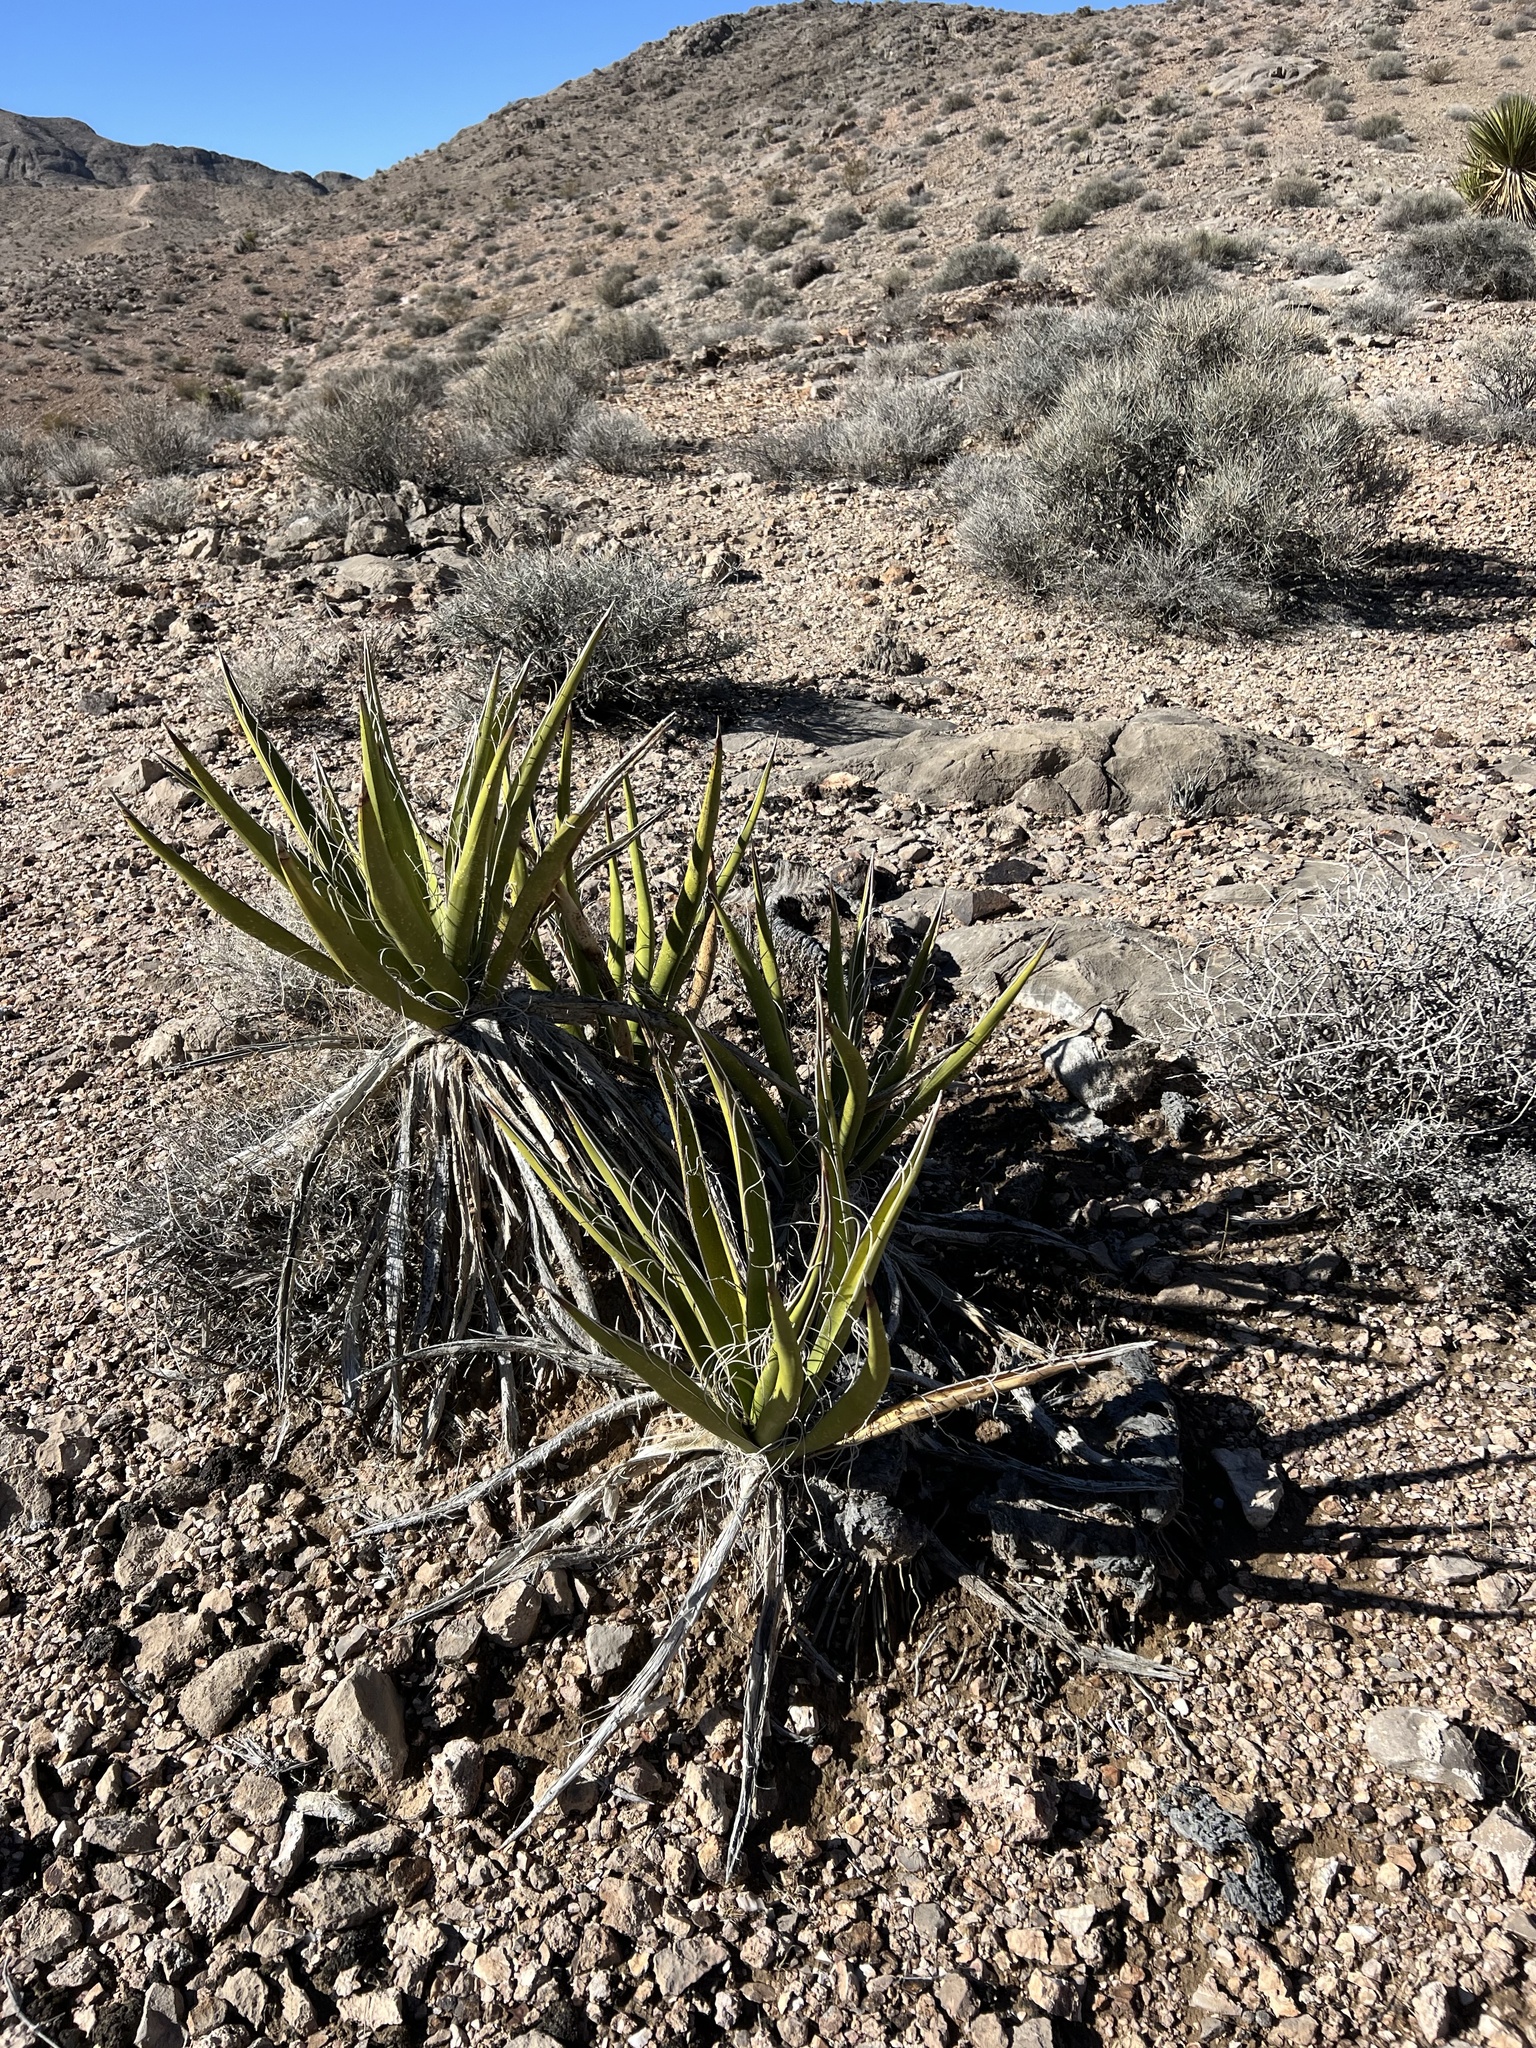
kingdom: Plantae
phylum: Tracheophyta
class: Liliopsida
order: Asparagales
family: Asparagaceae
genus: Yucca
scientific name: Yucca schidigera
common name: Mojave yucca
